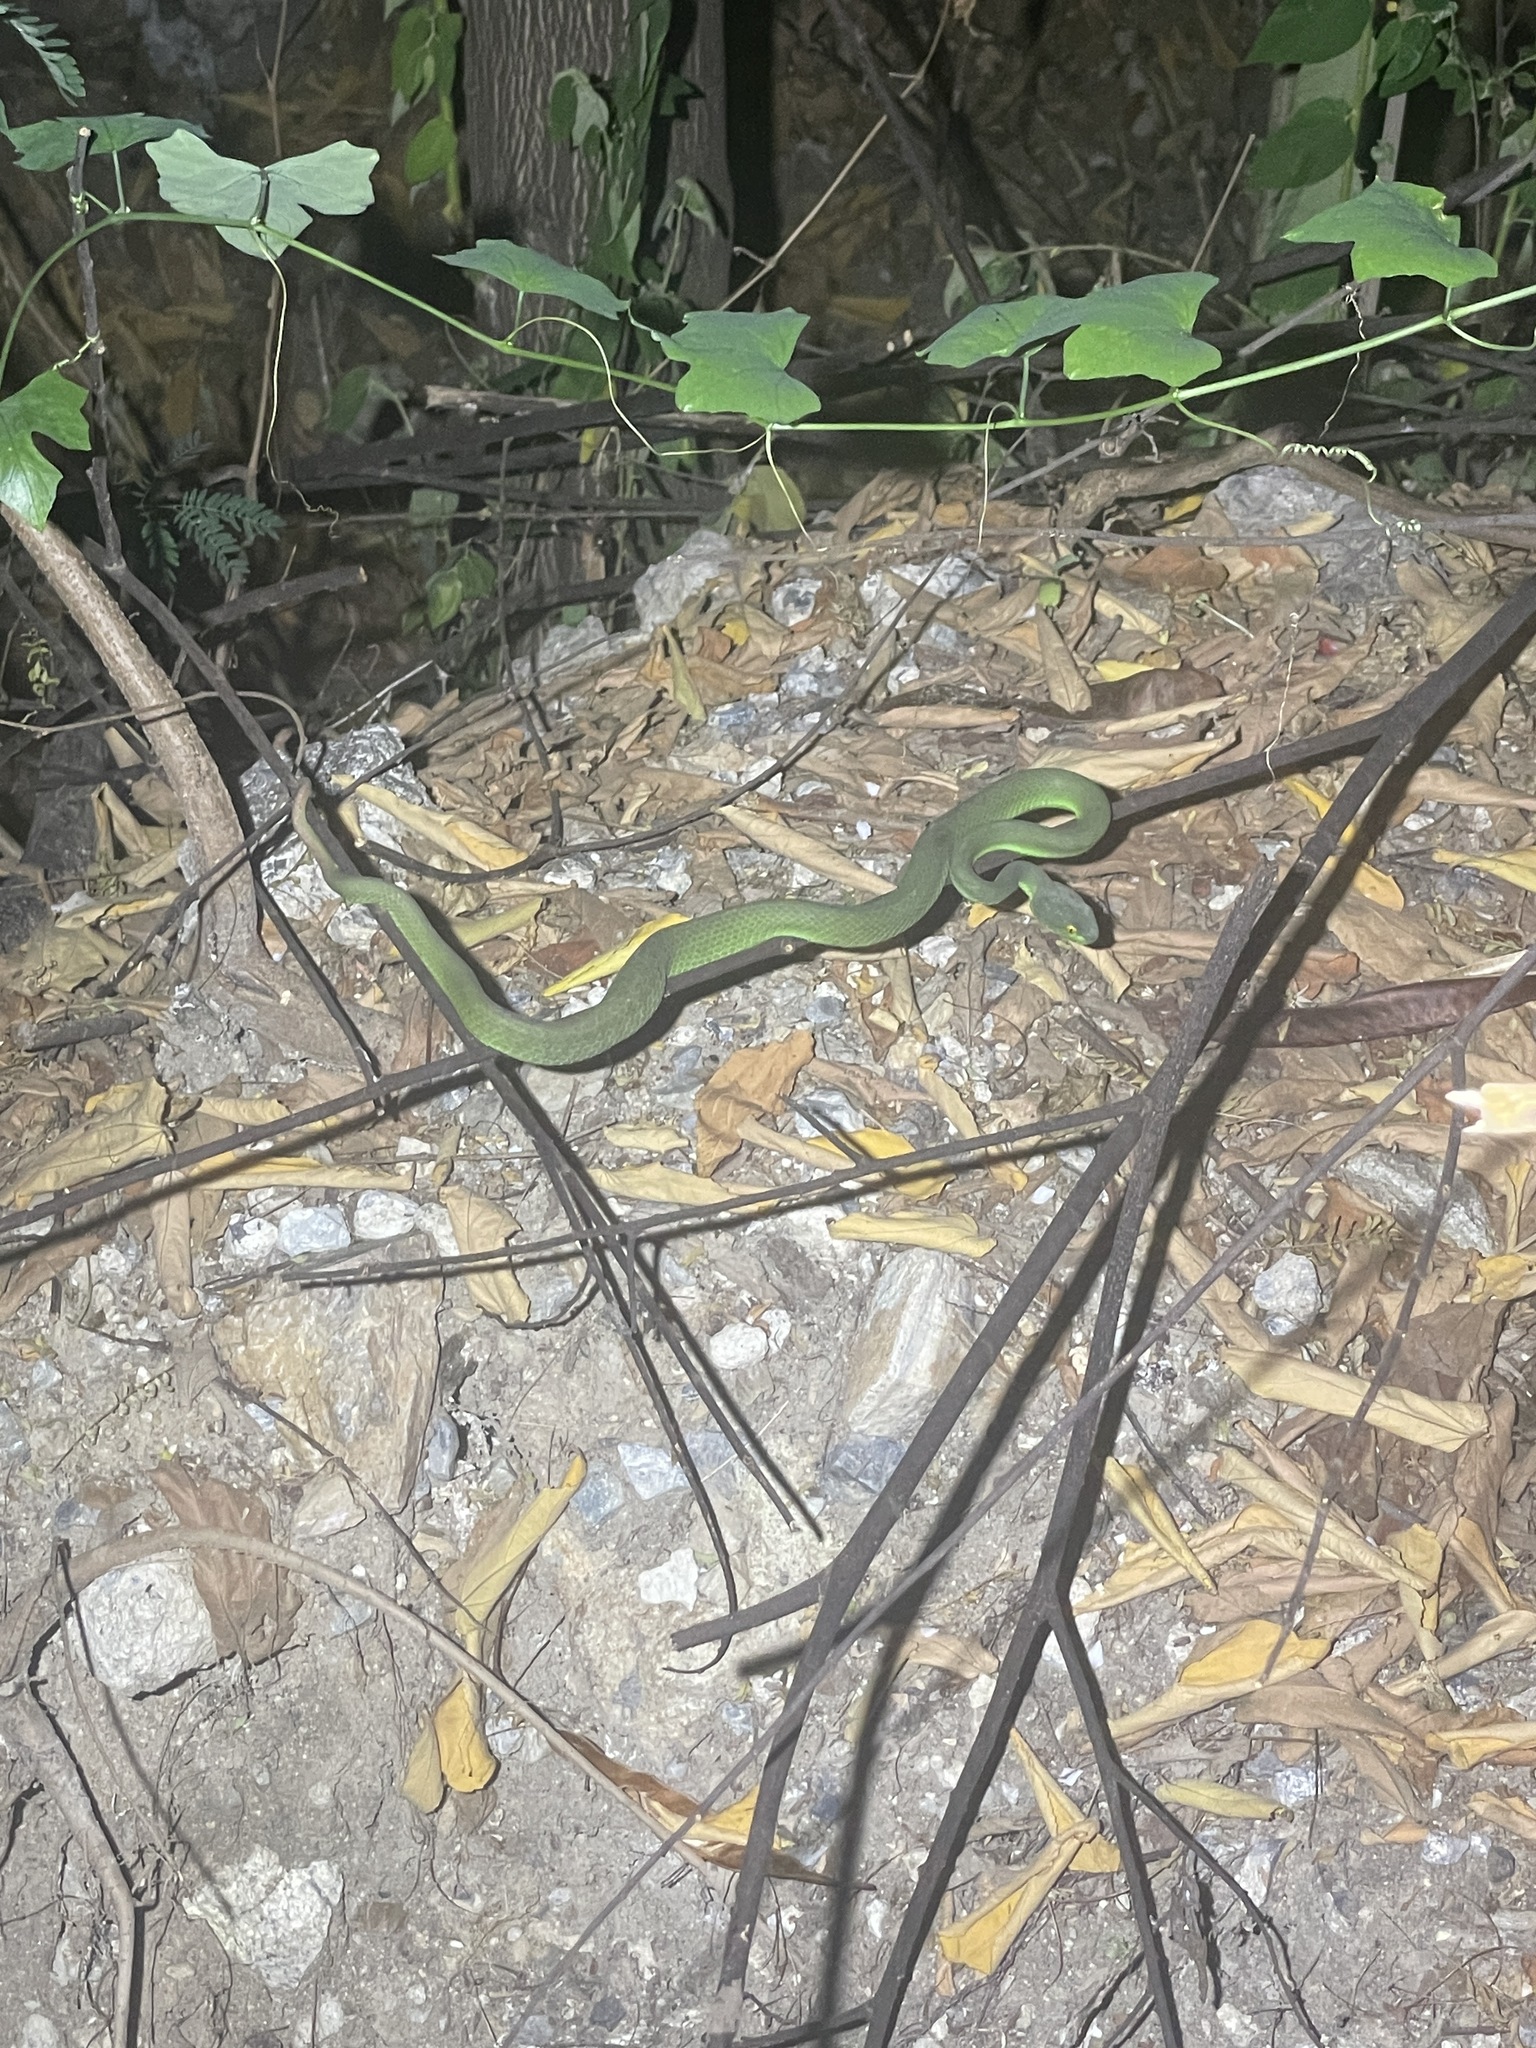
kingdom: Animalia
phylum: Chordata
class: Squamata
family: Viperidae
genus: Trimeresurus
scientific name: Trimeresurus macrops
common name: Kramer's pit viper
